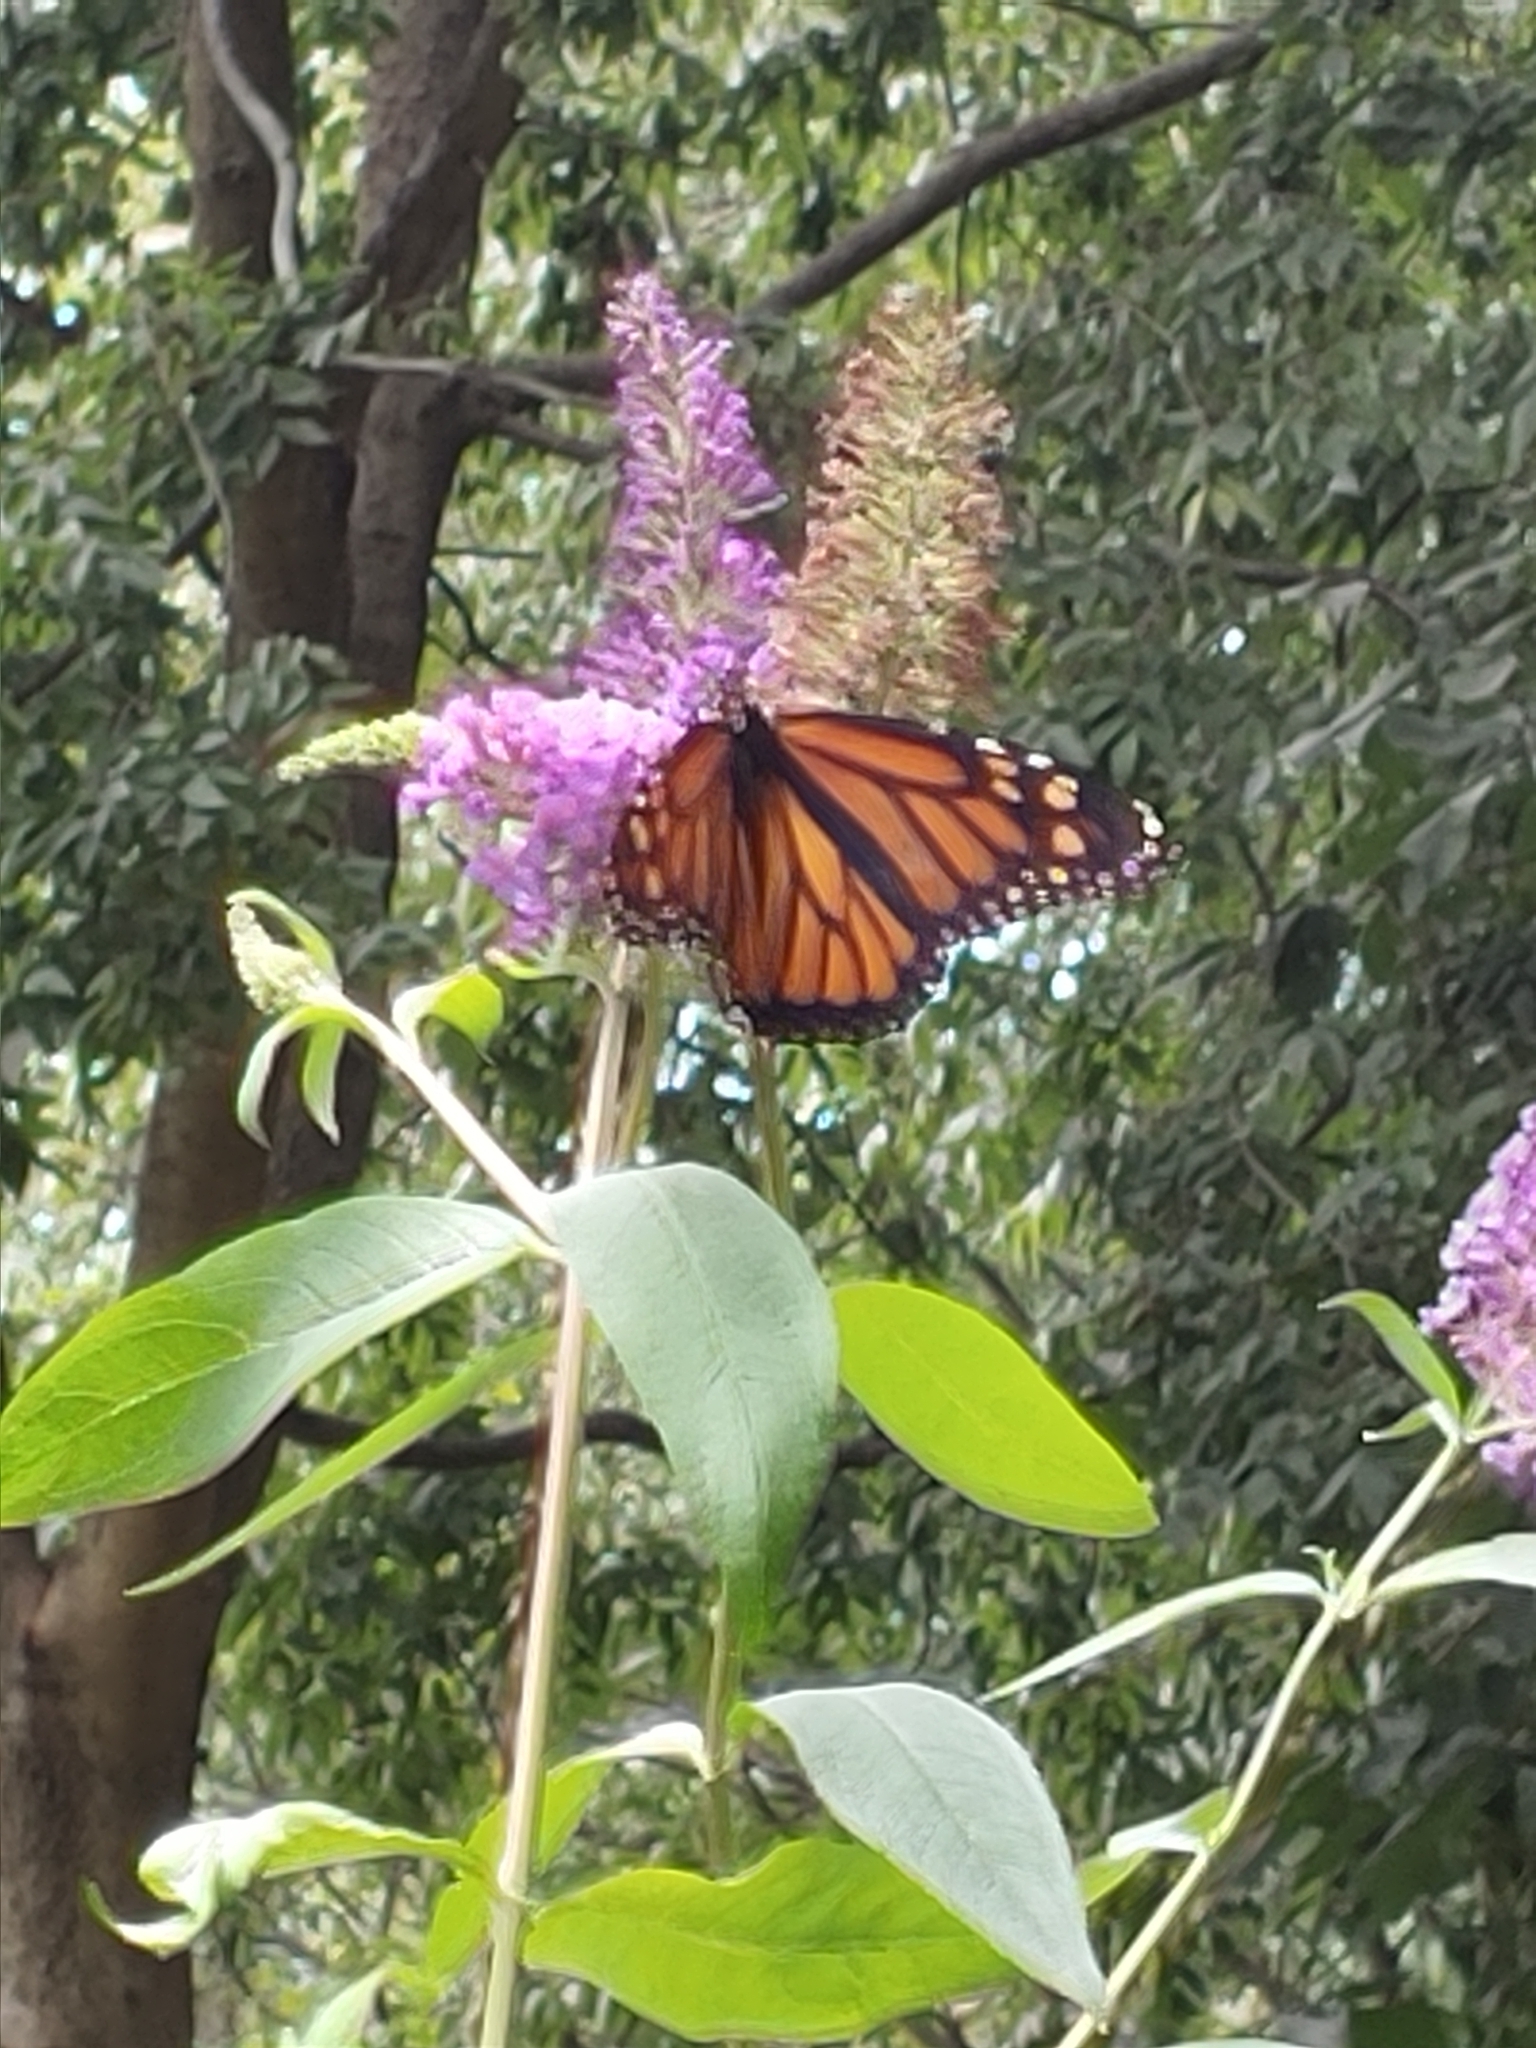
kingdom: Animalia
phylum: Arthropoda
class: Insecta
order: Lepidoptera
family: Nymphalidae
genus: Danaus
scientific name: Danaus plexippus
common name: Monarch
